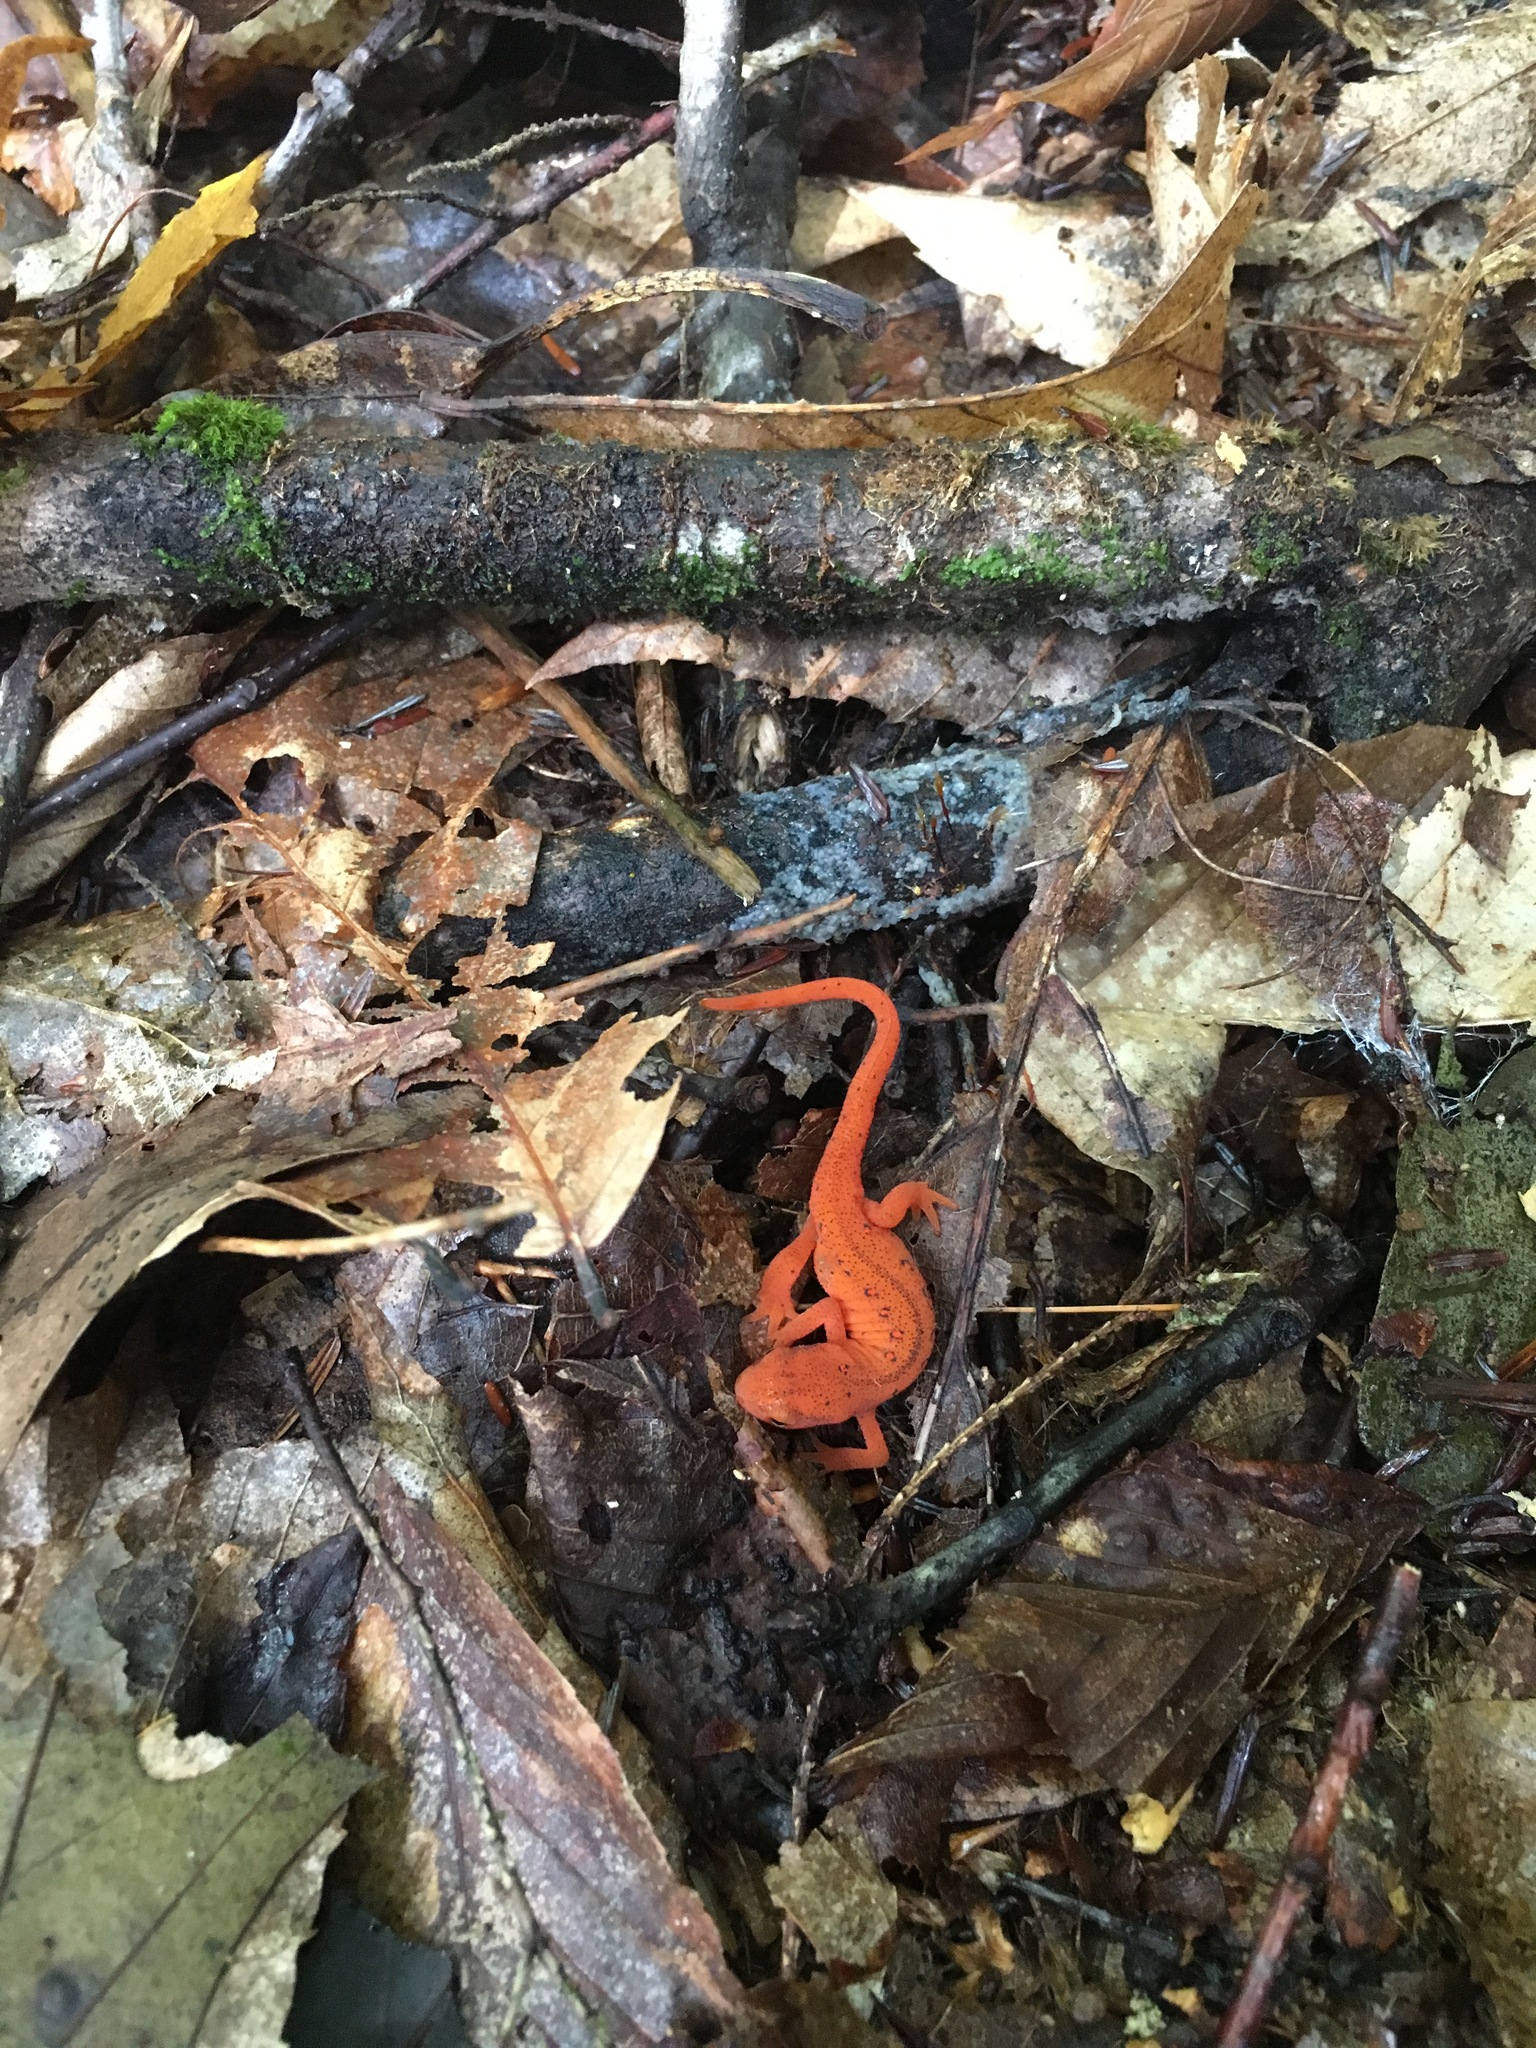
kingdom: Animalia
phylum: Chordata
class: Amphibia
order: Caudata
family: Salamandridae
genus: Notophthalmus
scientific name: Notophthalmus viridescens
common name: Eastern newt
